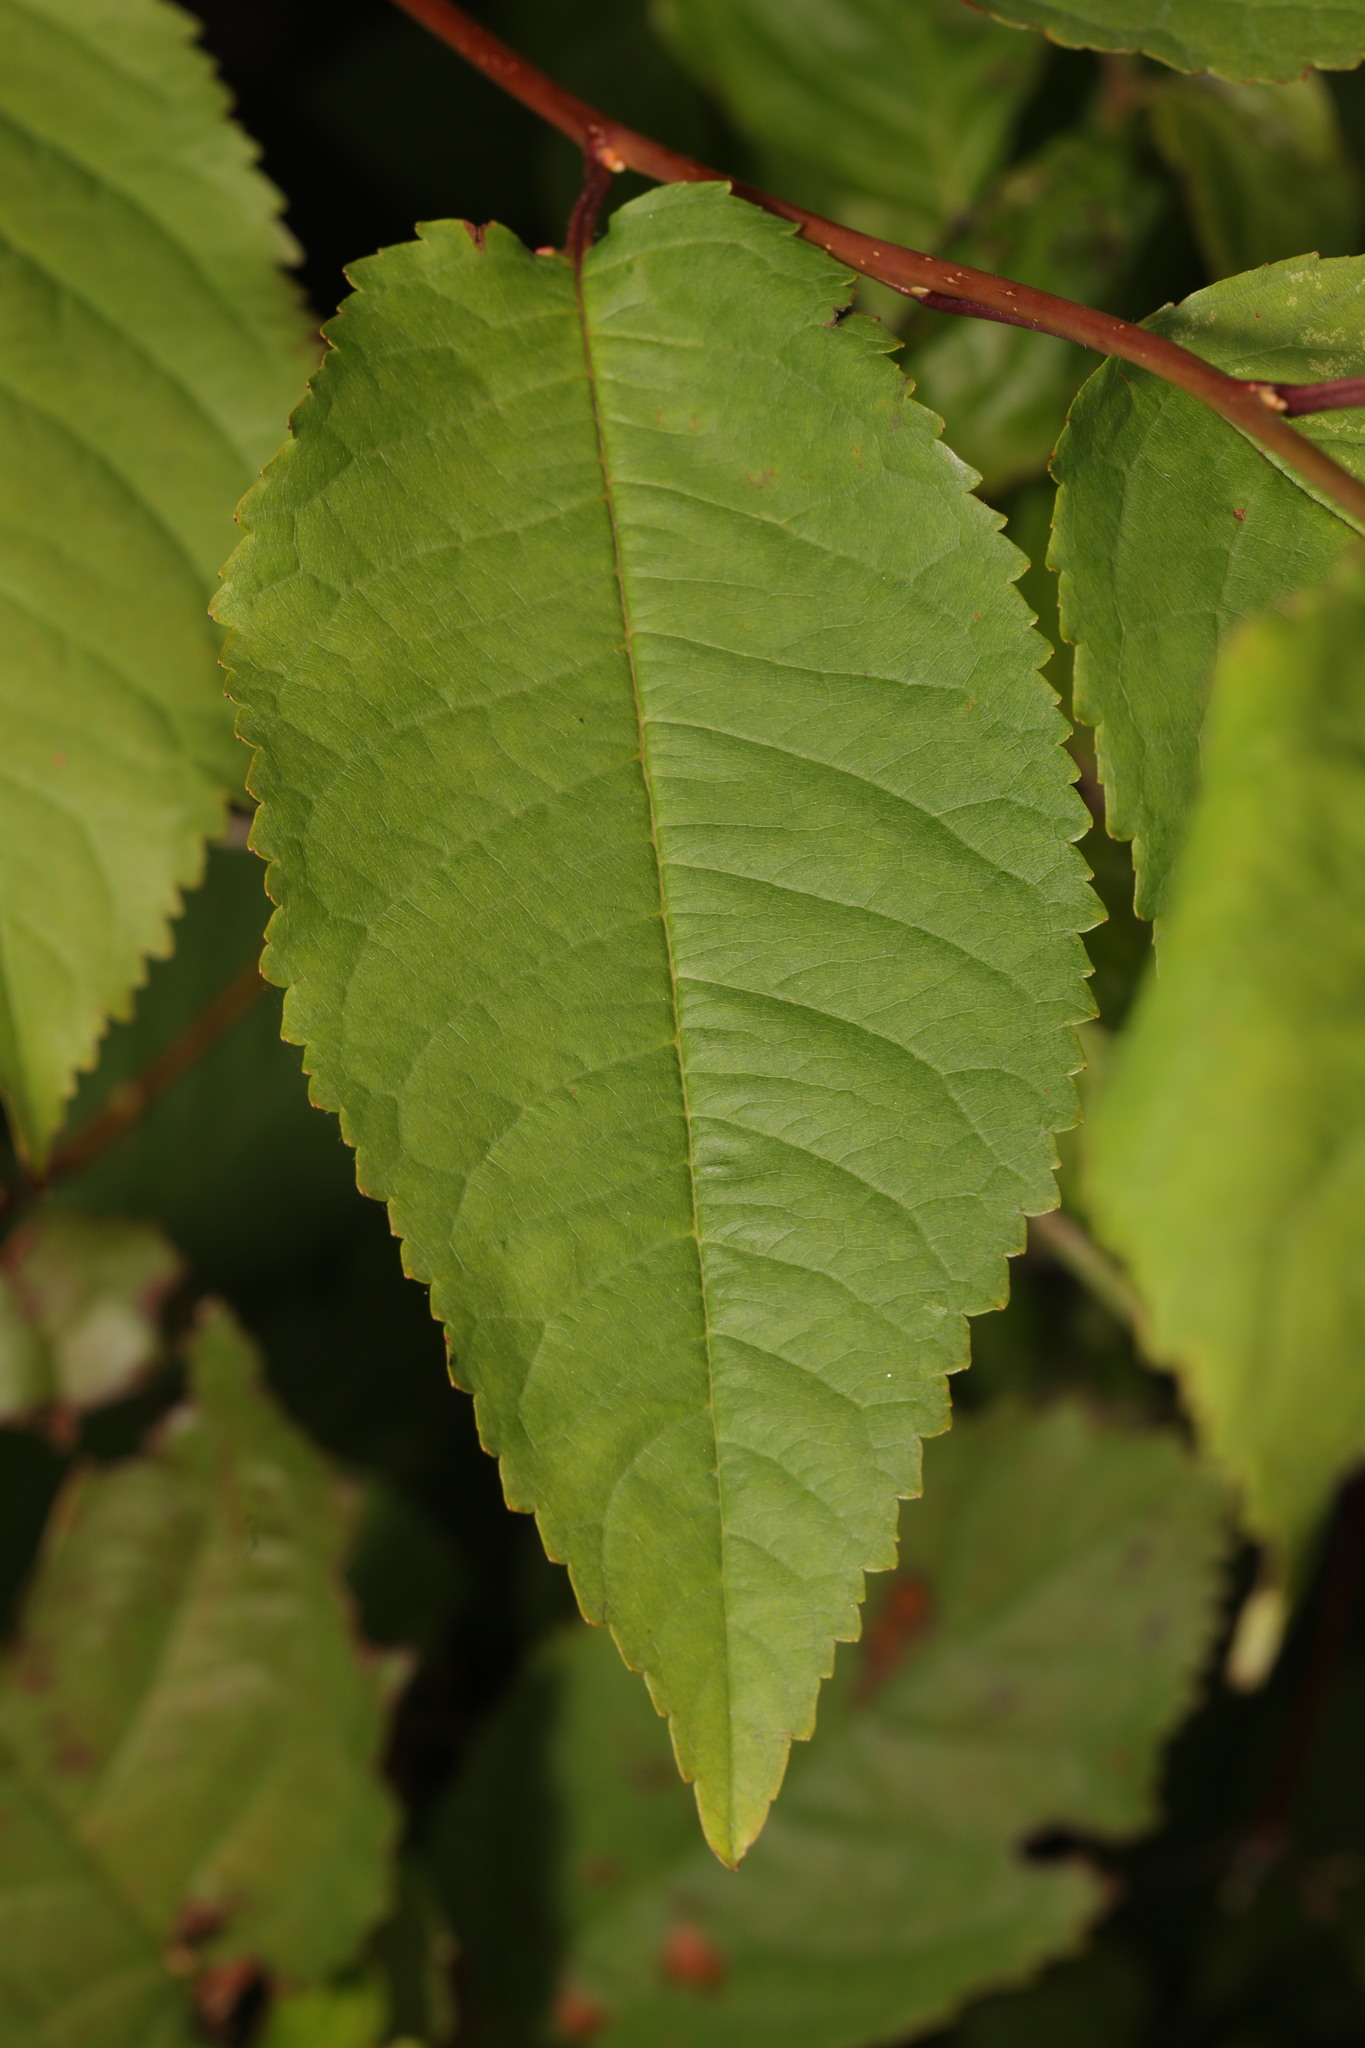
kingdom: Plantae
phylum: Tracheophyta
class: Magnoliopsida
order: Rosales
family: Rosaceae
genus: Prunus
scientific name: Prunus avium
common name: Sweet cherry
